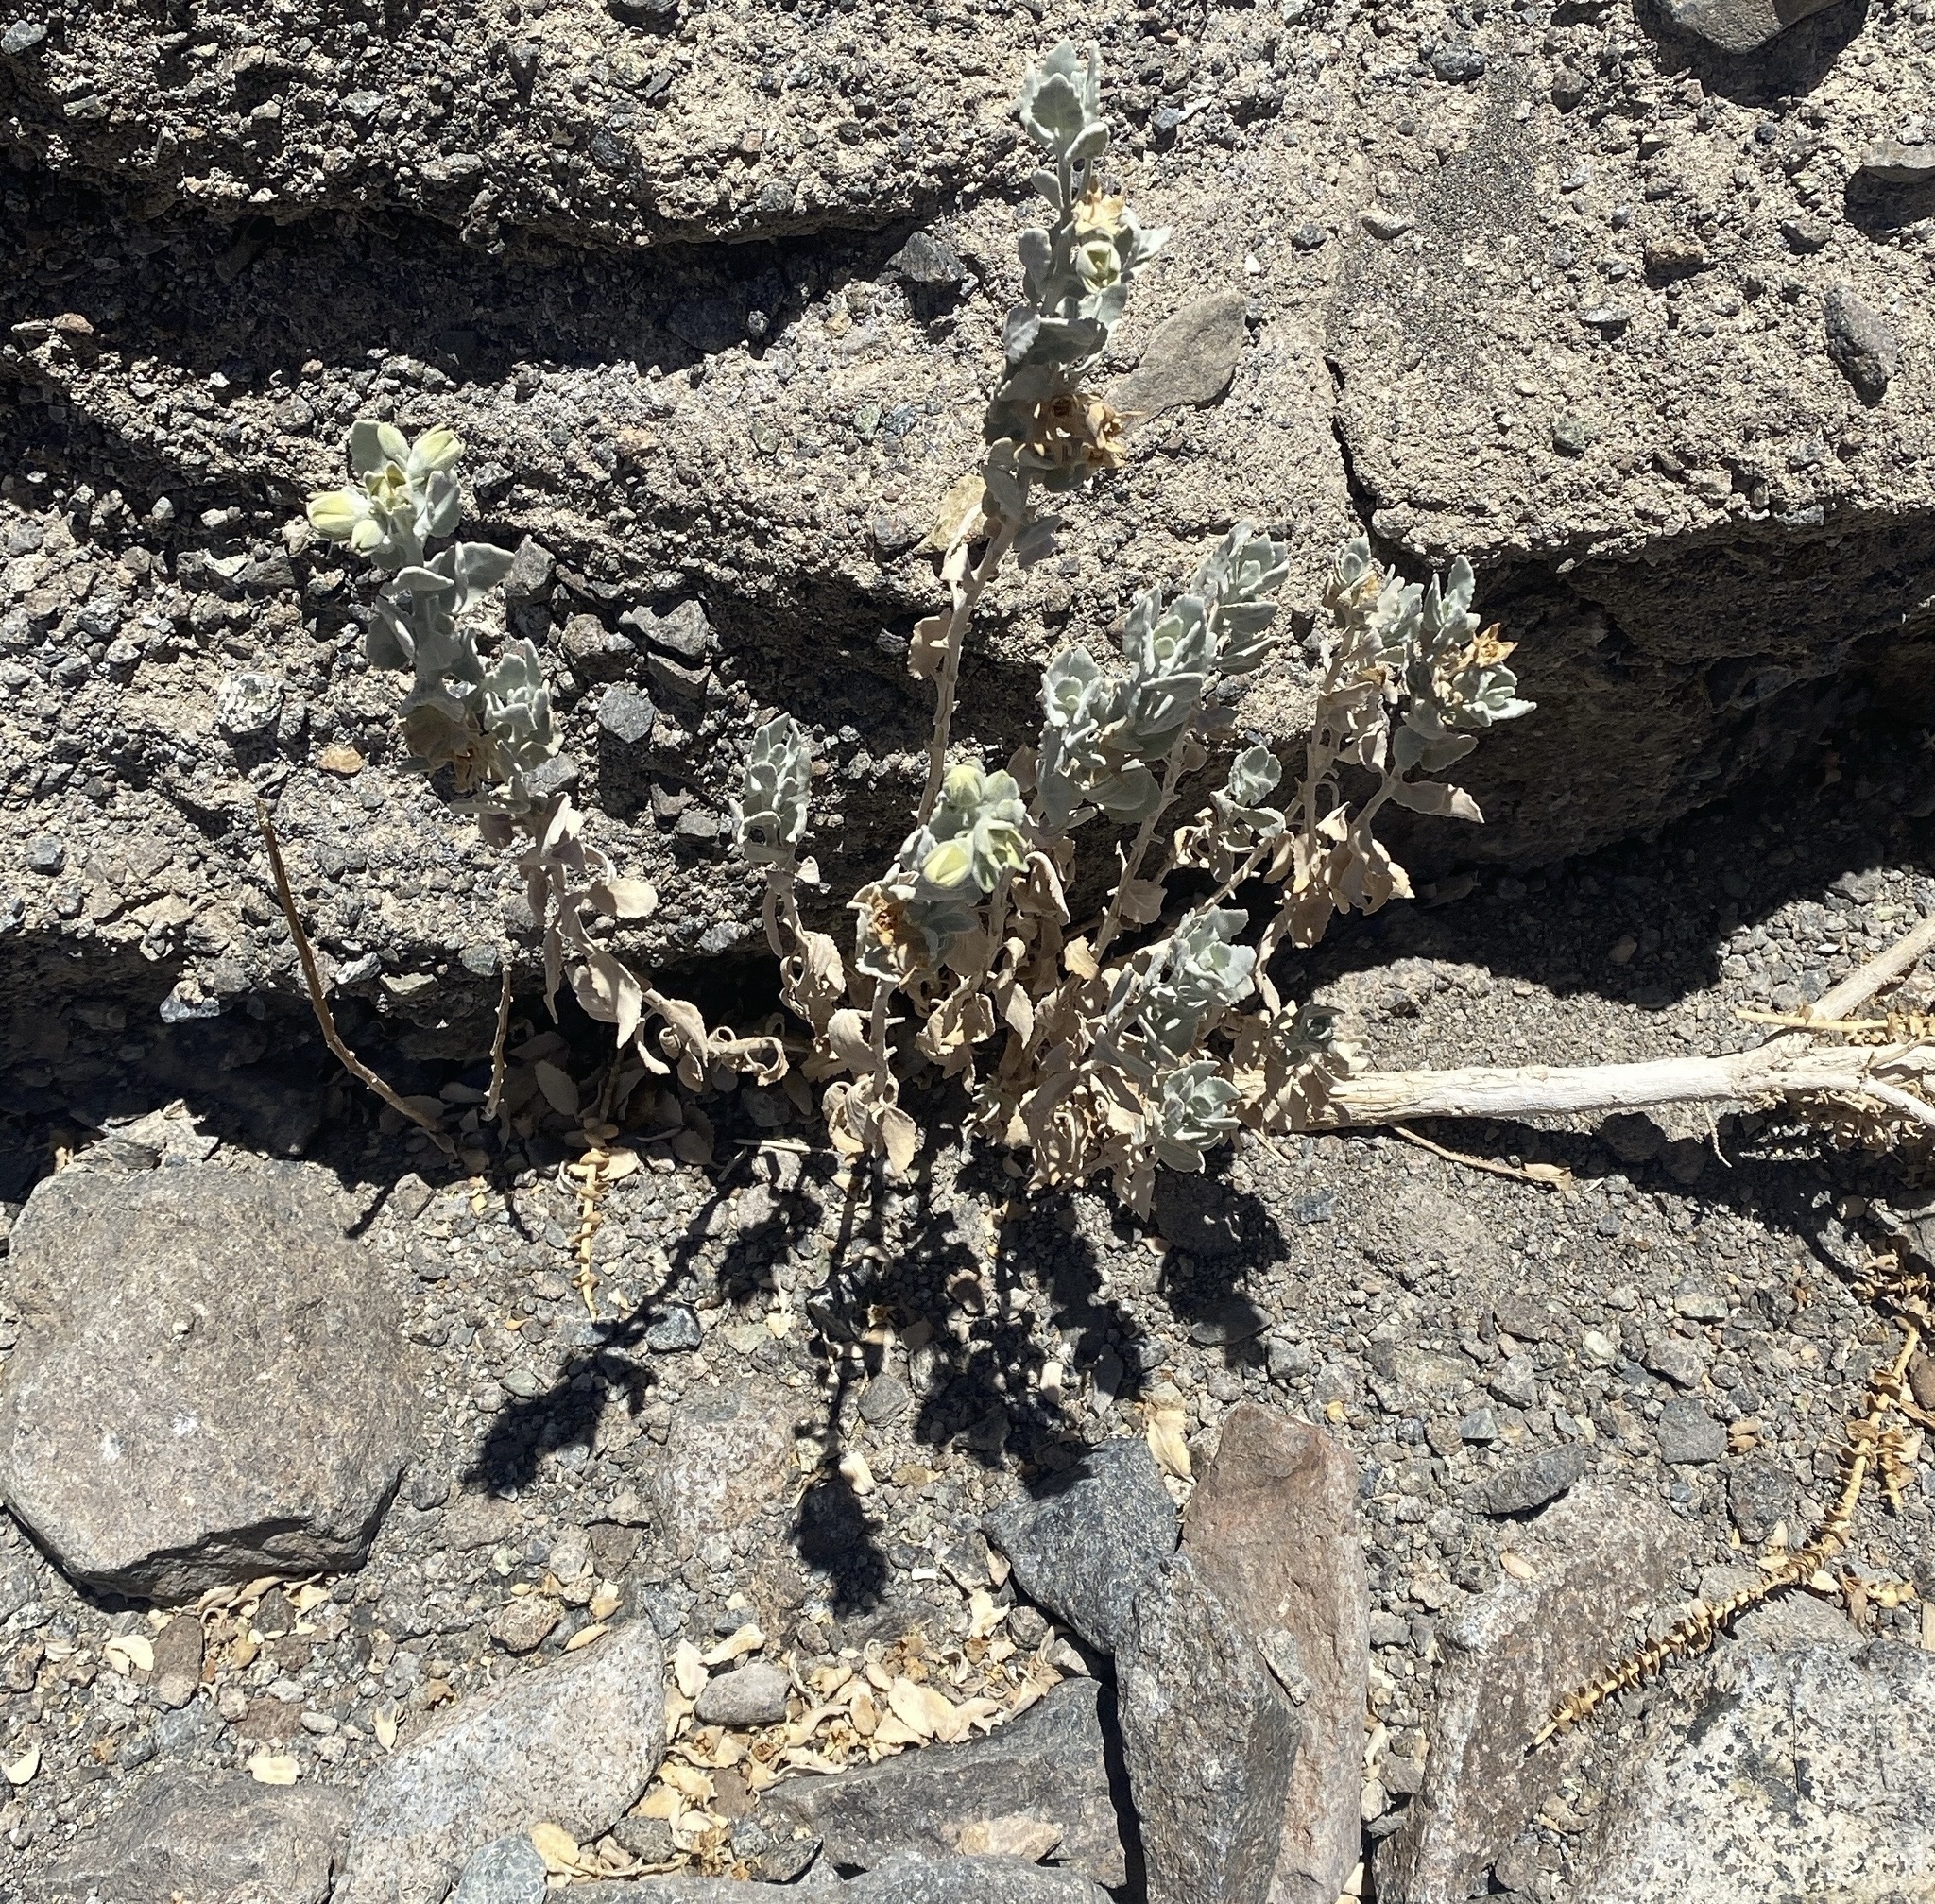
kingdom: Plantae
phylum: Tracheophyta
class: Magnoliopsida
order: Cornales
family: Loasaceae
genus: Huidobria
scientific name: Huidobria fruticosa
